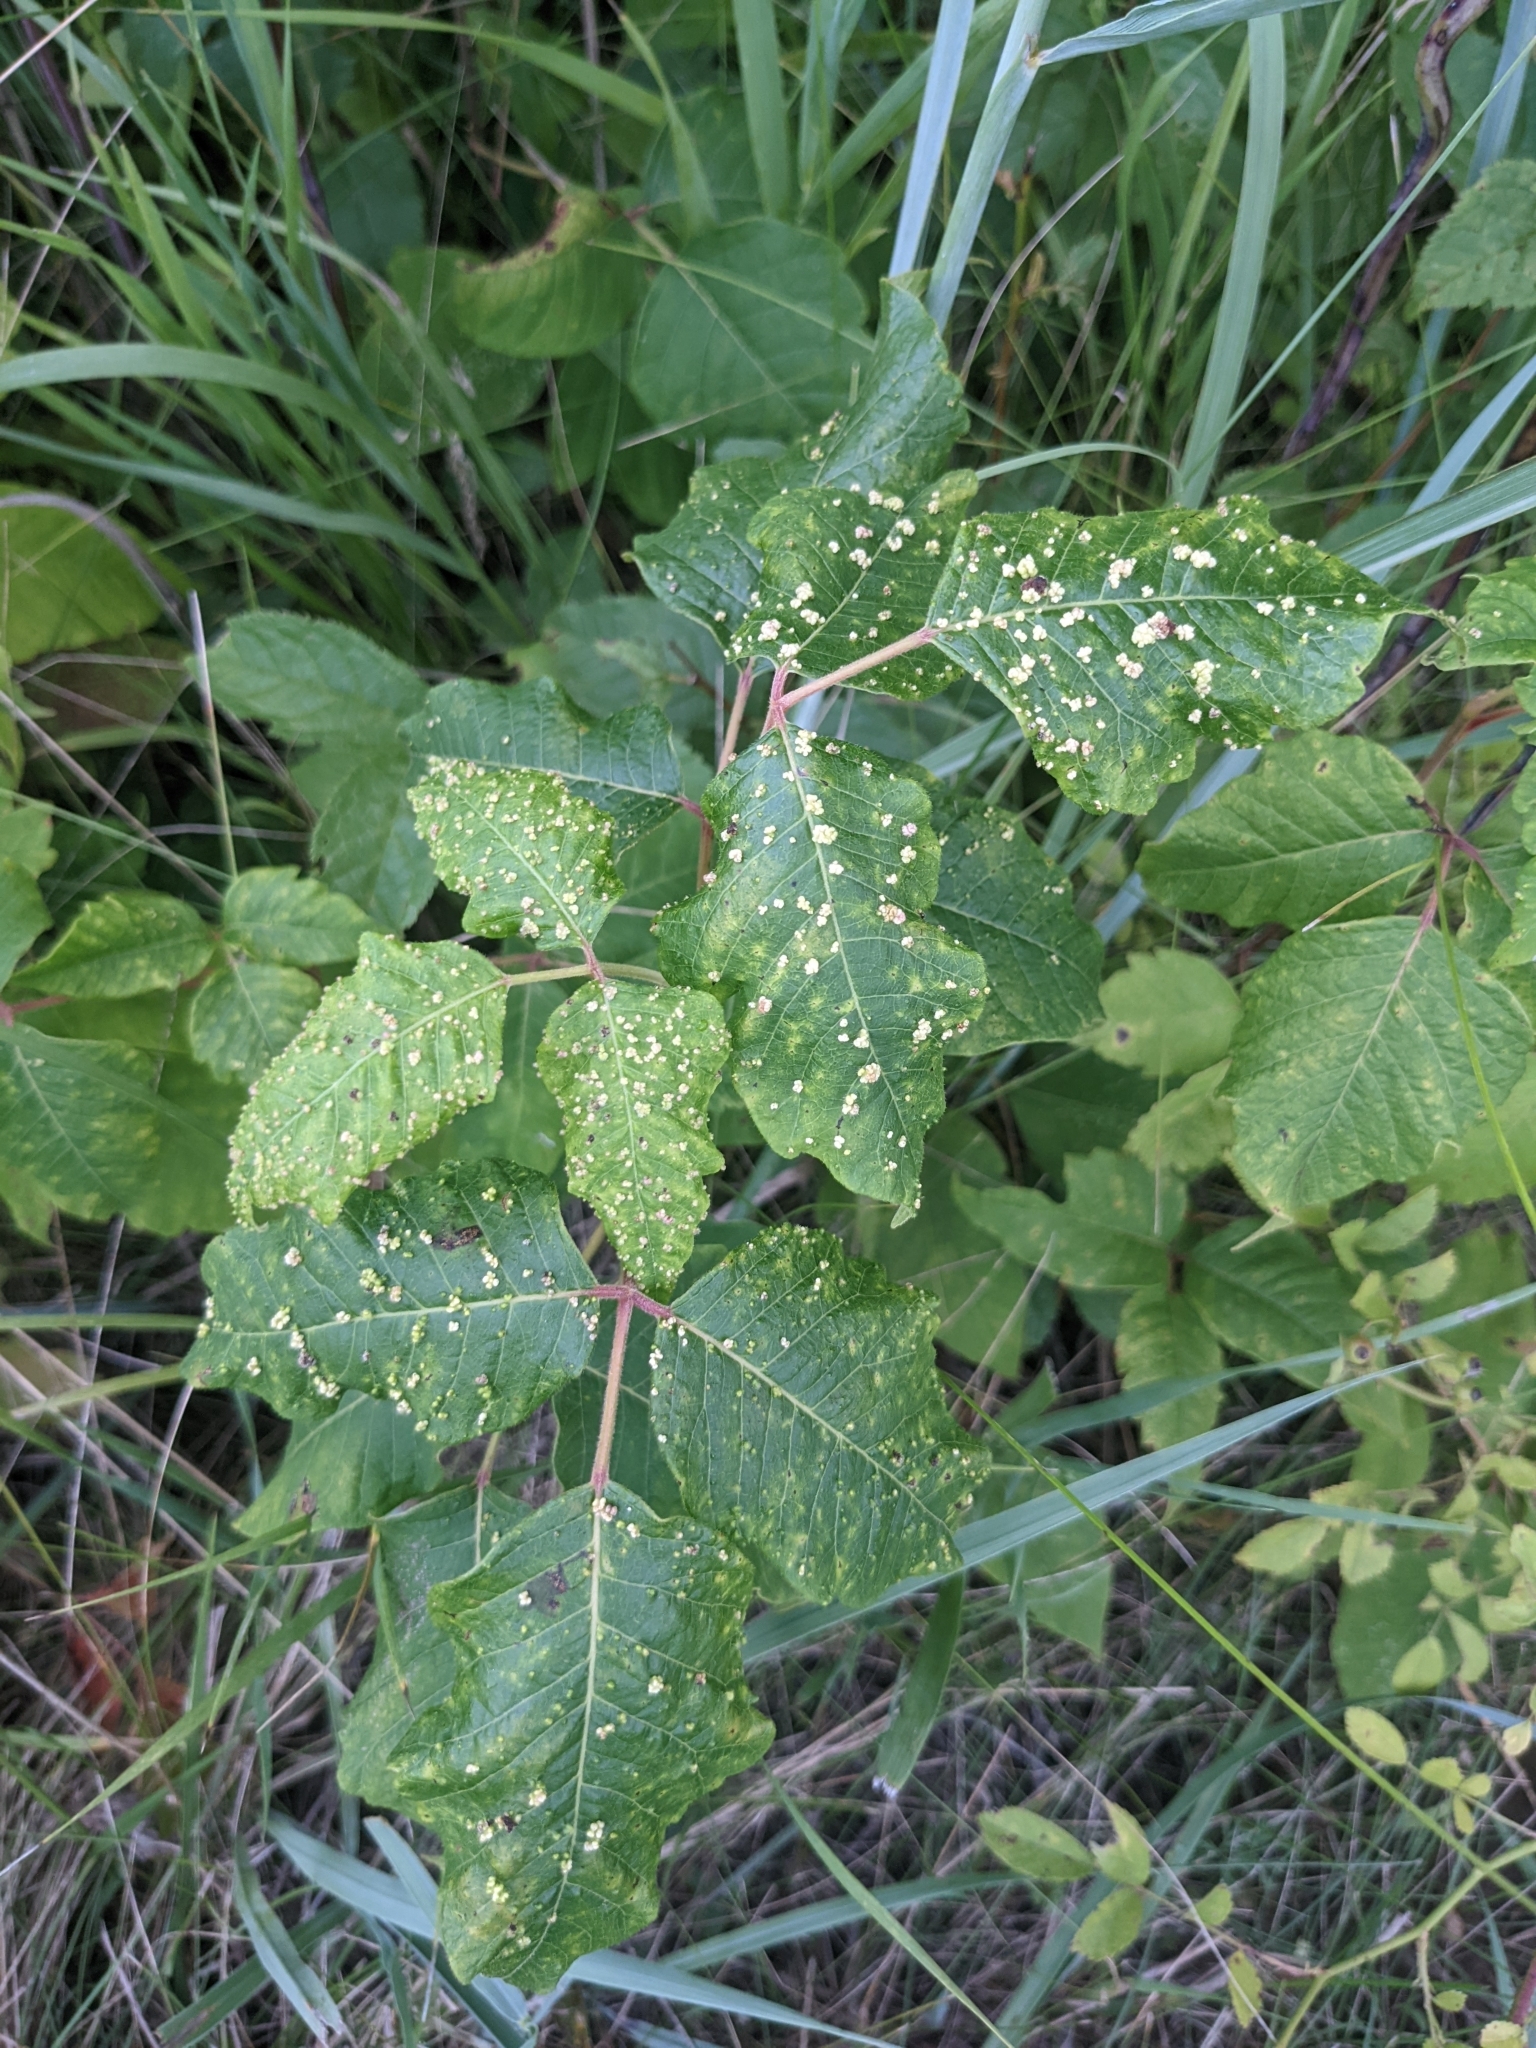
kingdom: Animalia
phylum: Arthropoda
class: Arachnida
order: Trombidiformes
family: Eriophyidae
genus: Aculops
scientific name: Aculops
